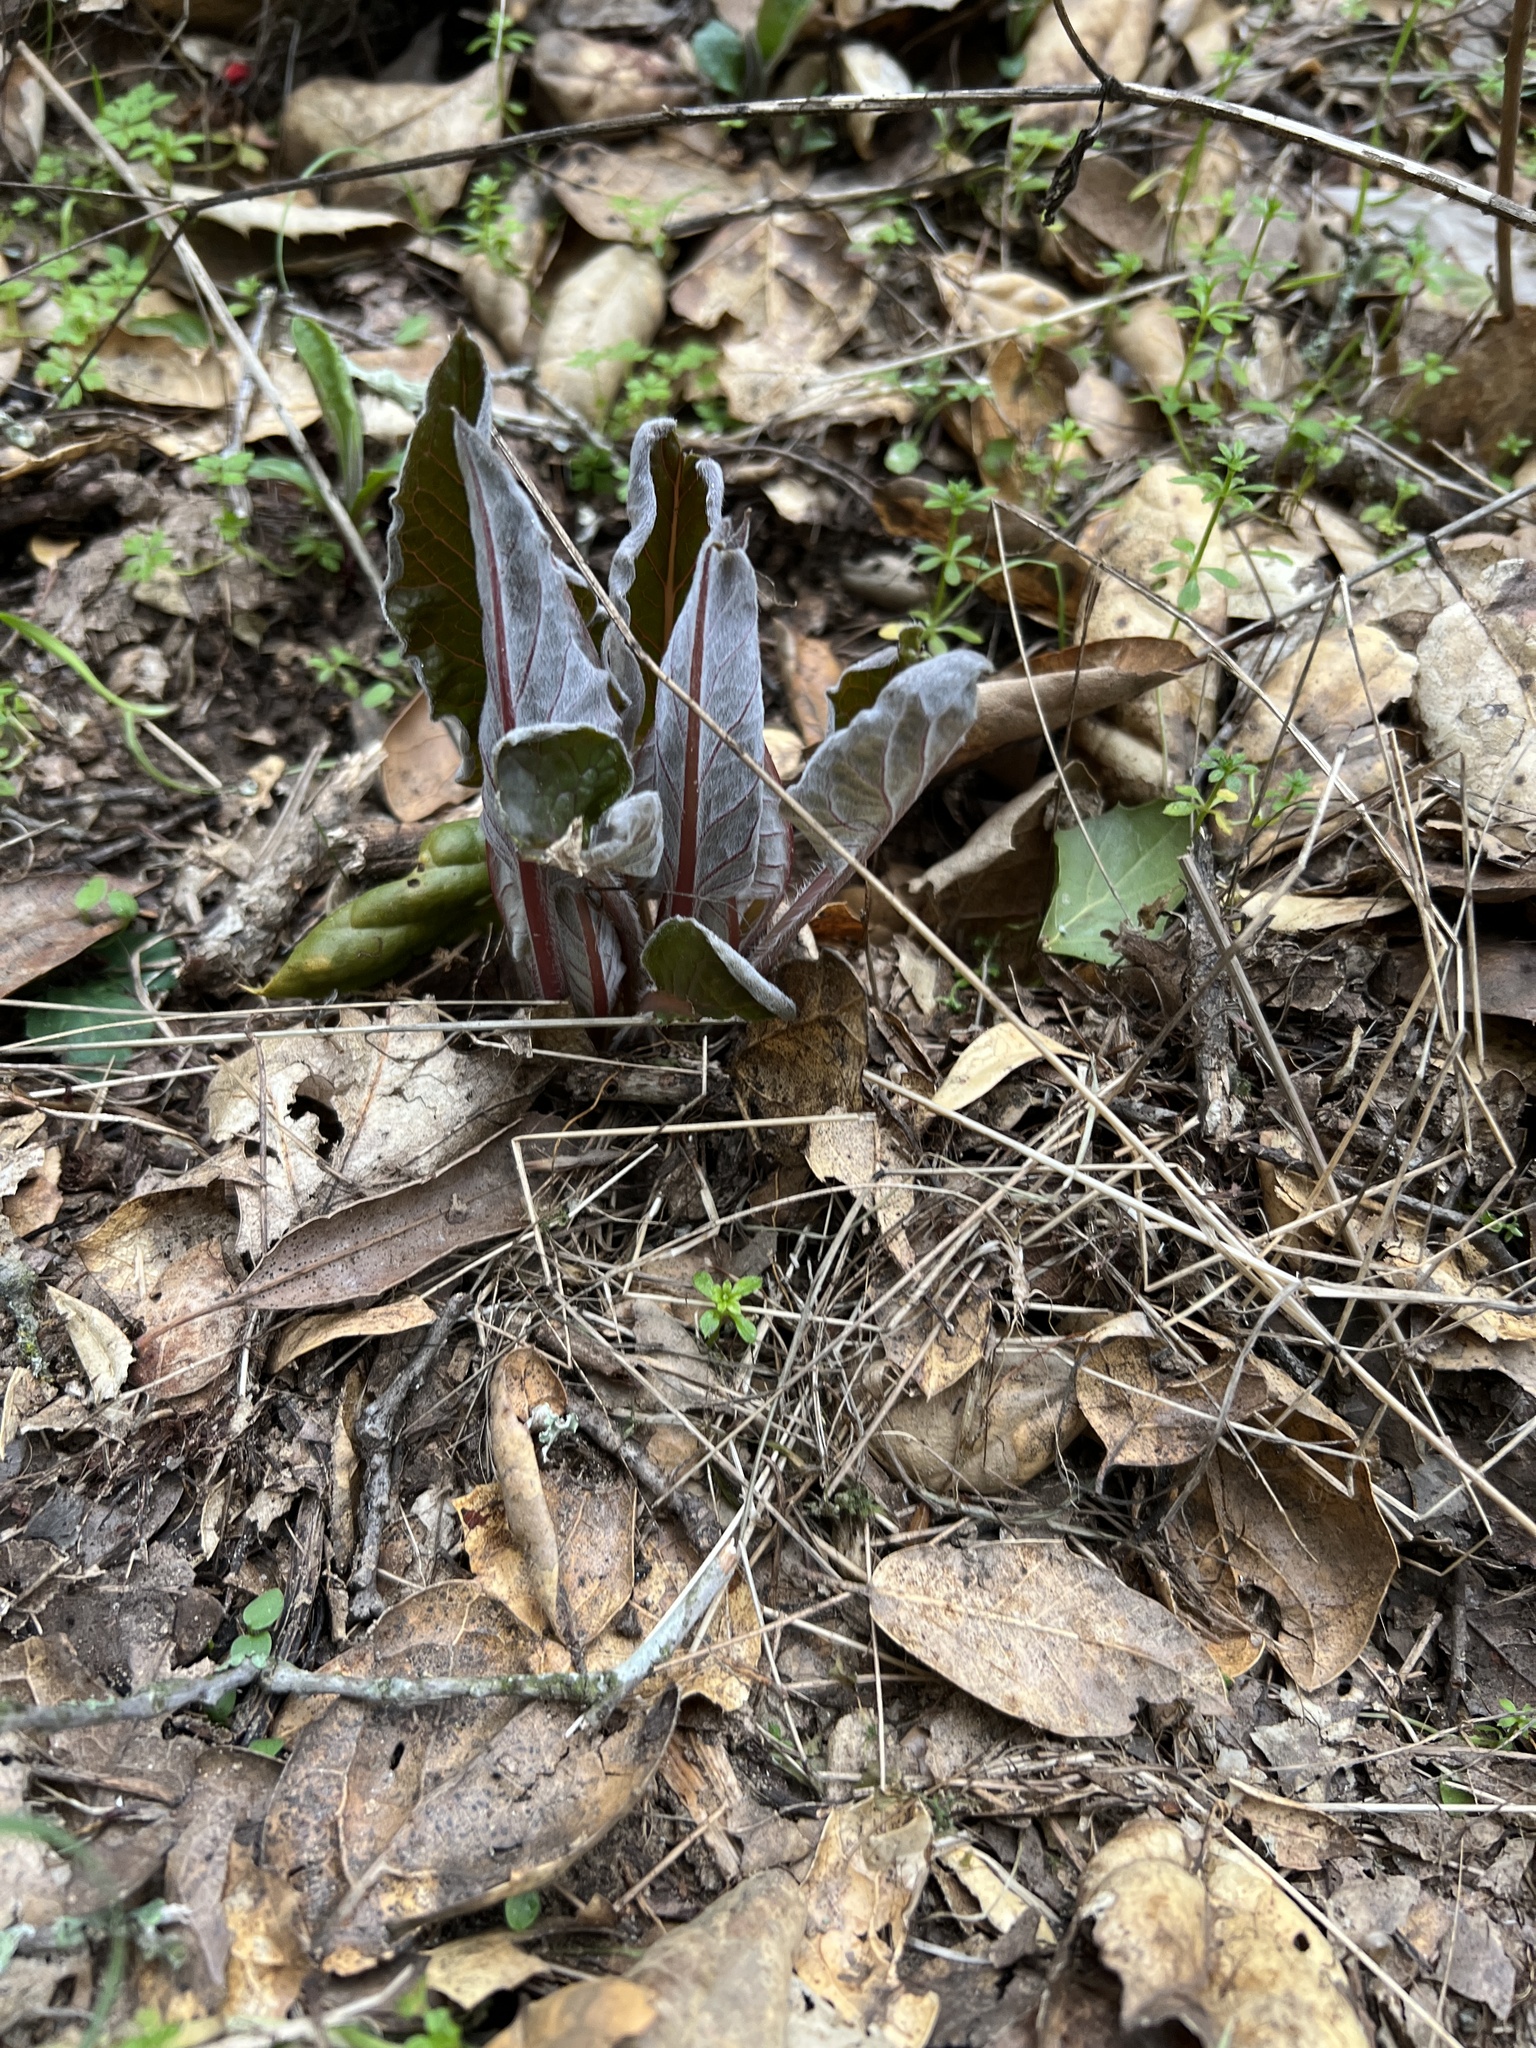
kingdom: Plantae
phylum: Tracheophyta
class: Magnoliopsida
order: Boraginales
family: Boraginaceae
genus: Adelinia
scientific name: Adelinia grande
